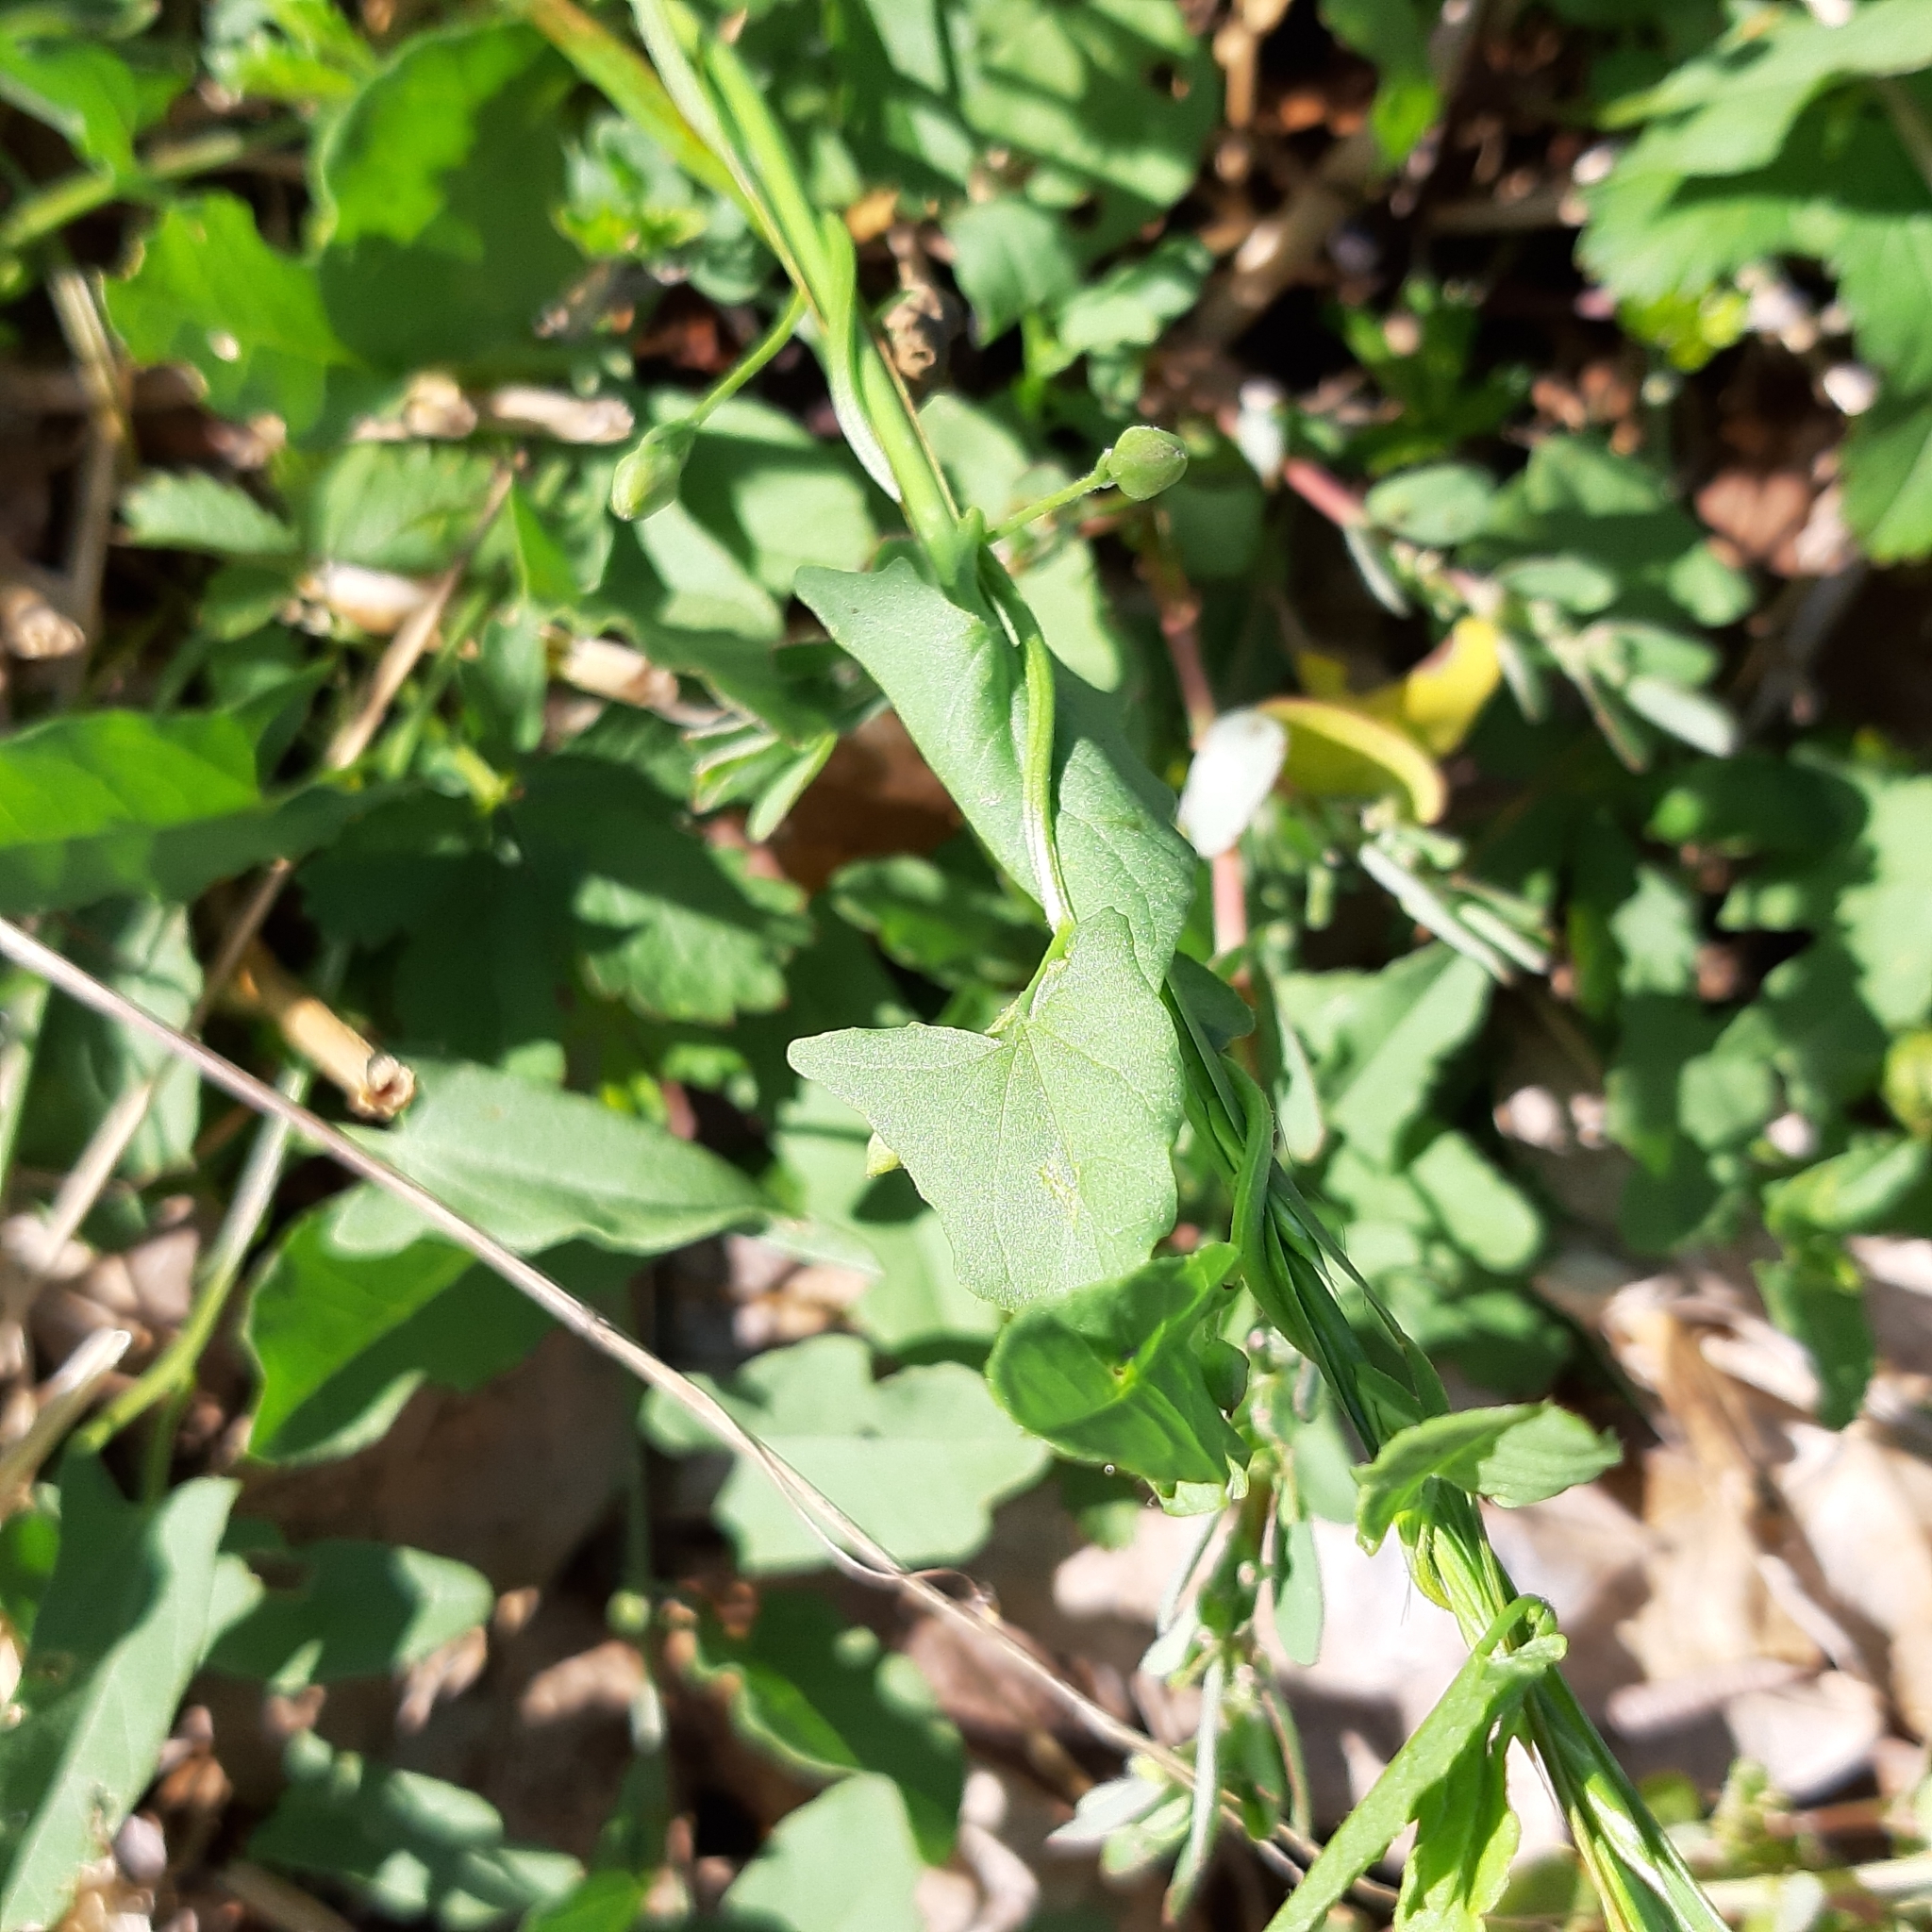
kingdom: Plantae
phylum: Tracheophyta
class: Magnoliopsida
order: Solanales
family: Convolvulaceae
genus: Convolvulus
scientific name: Convolvulus arvensis
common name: Field bindweed
